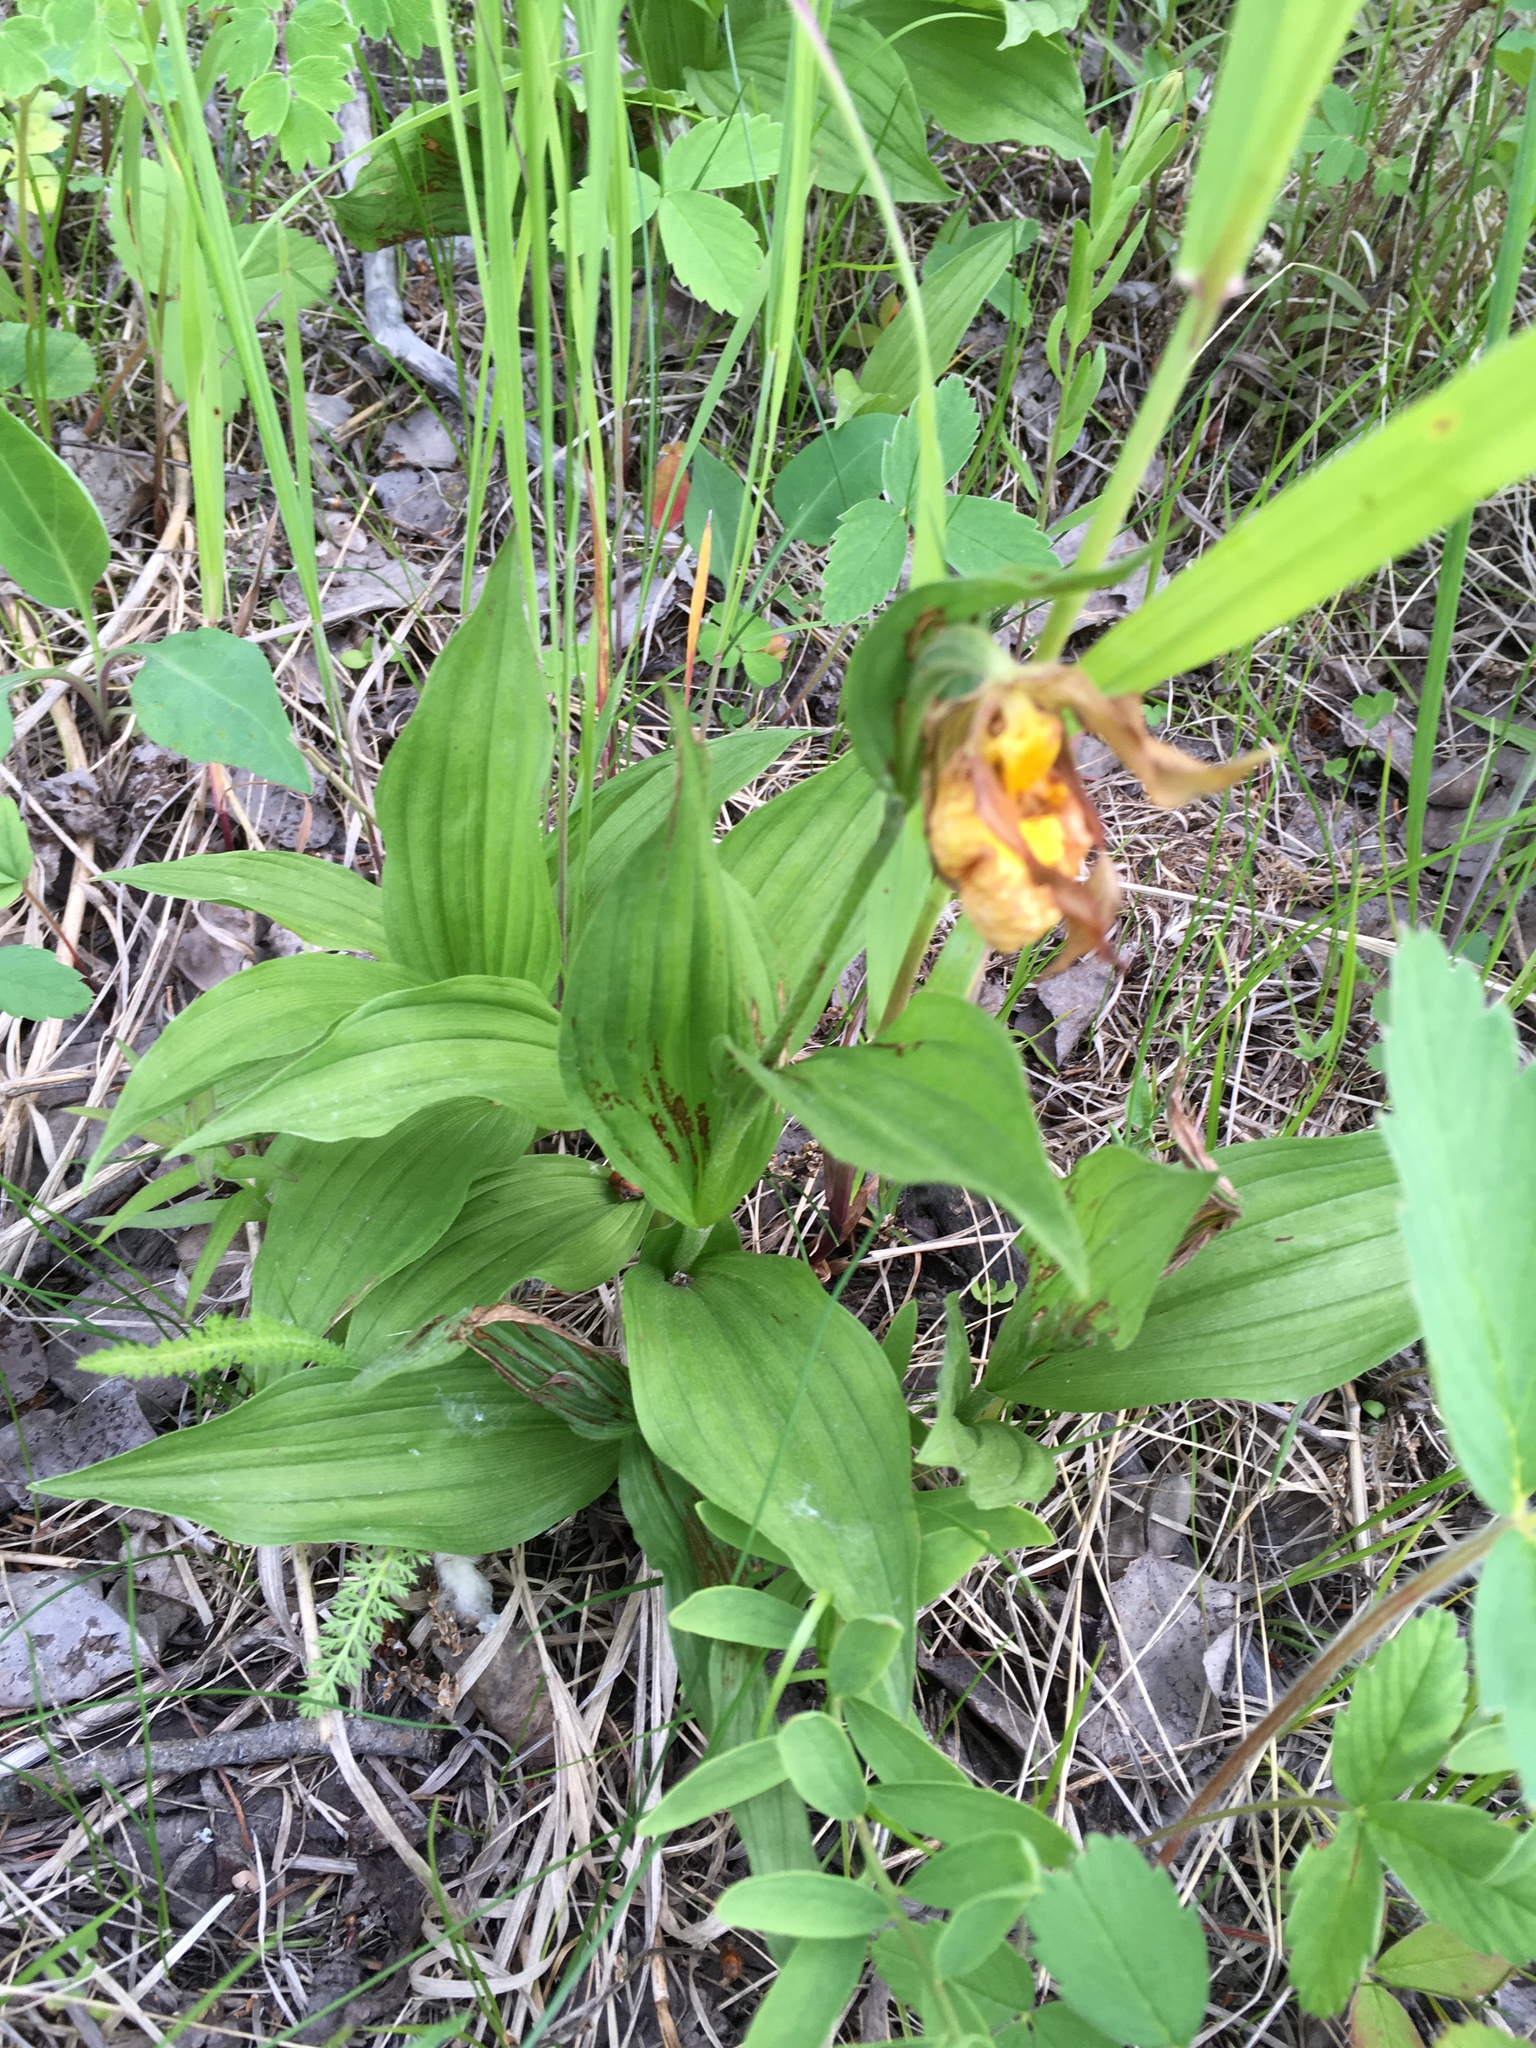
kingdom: Plantae
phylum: Tracheophyta
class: Liliopsida
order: Asparagales
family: Orchidaceae
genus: Cypripedium
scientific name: Cypripedium parviflorum
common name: American yellow lady's-slipper
